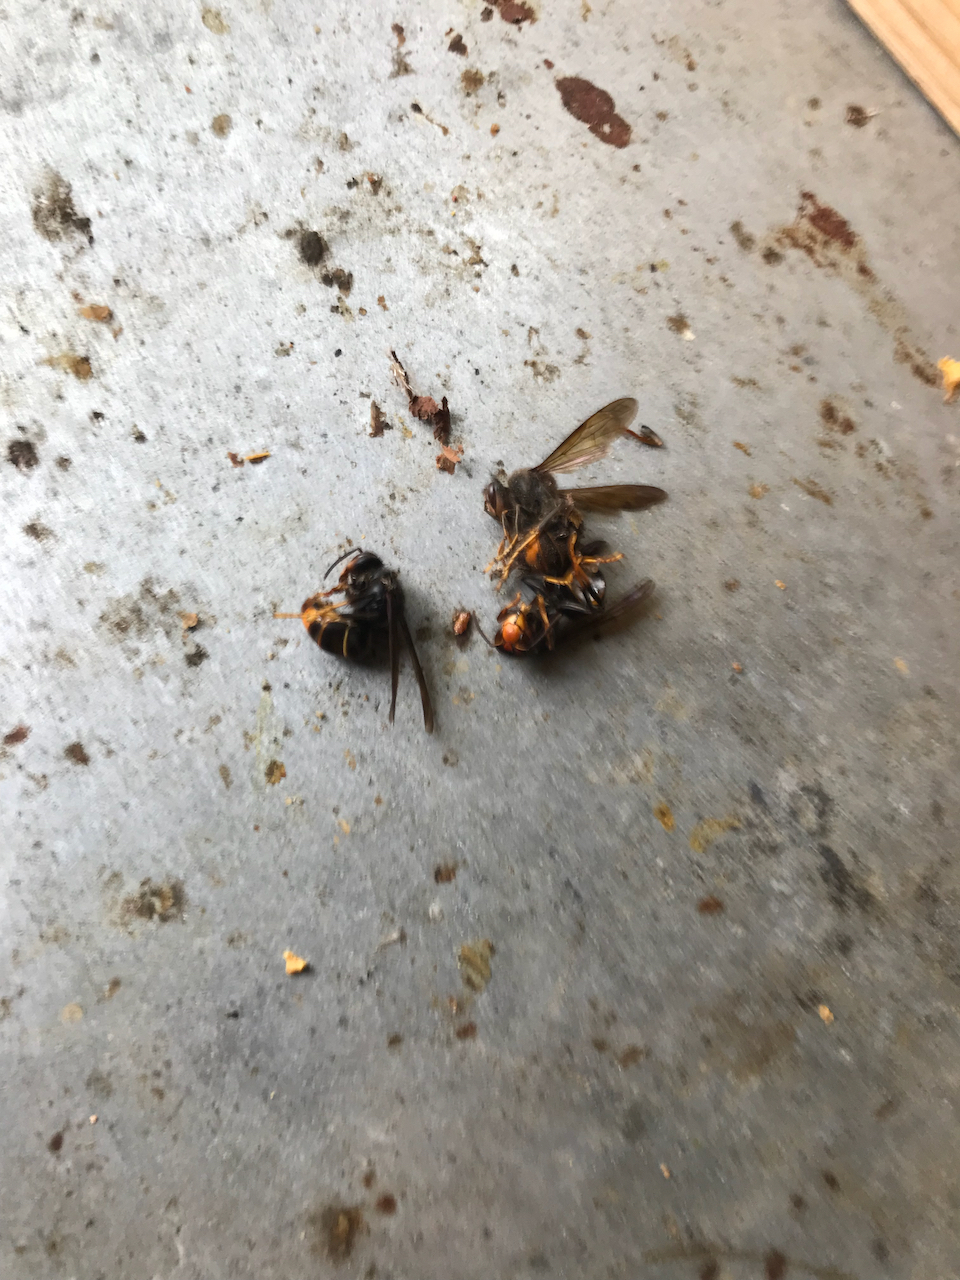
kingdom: Animalia
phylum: Arthropoda
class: Insecta
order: Hymenoptera
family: Vespidae
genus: Vespa
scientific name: Vespa velutina
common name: Asian hornet
